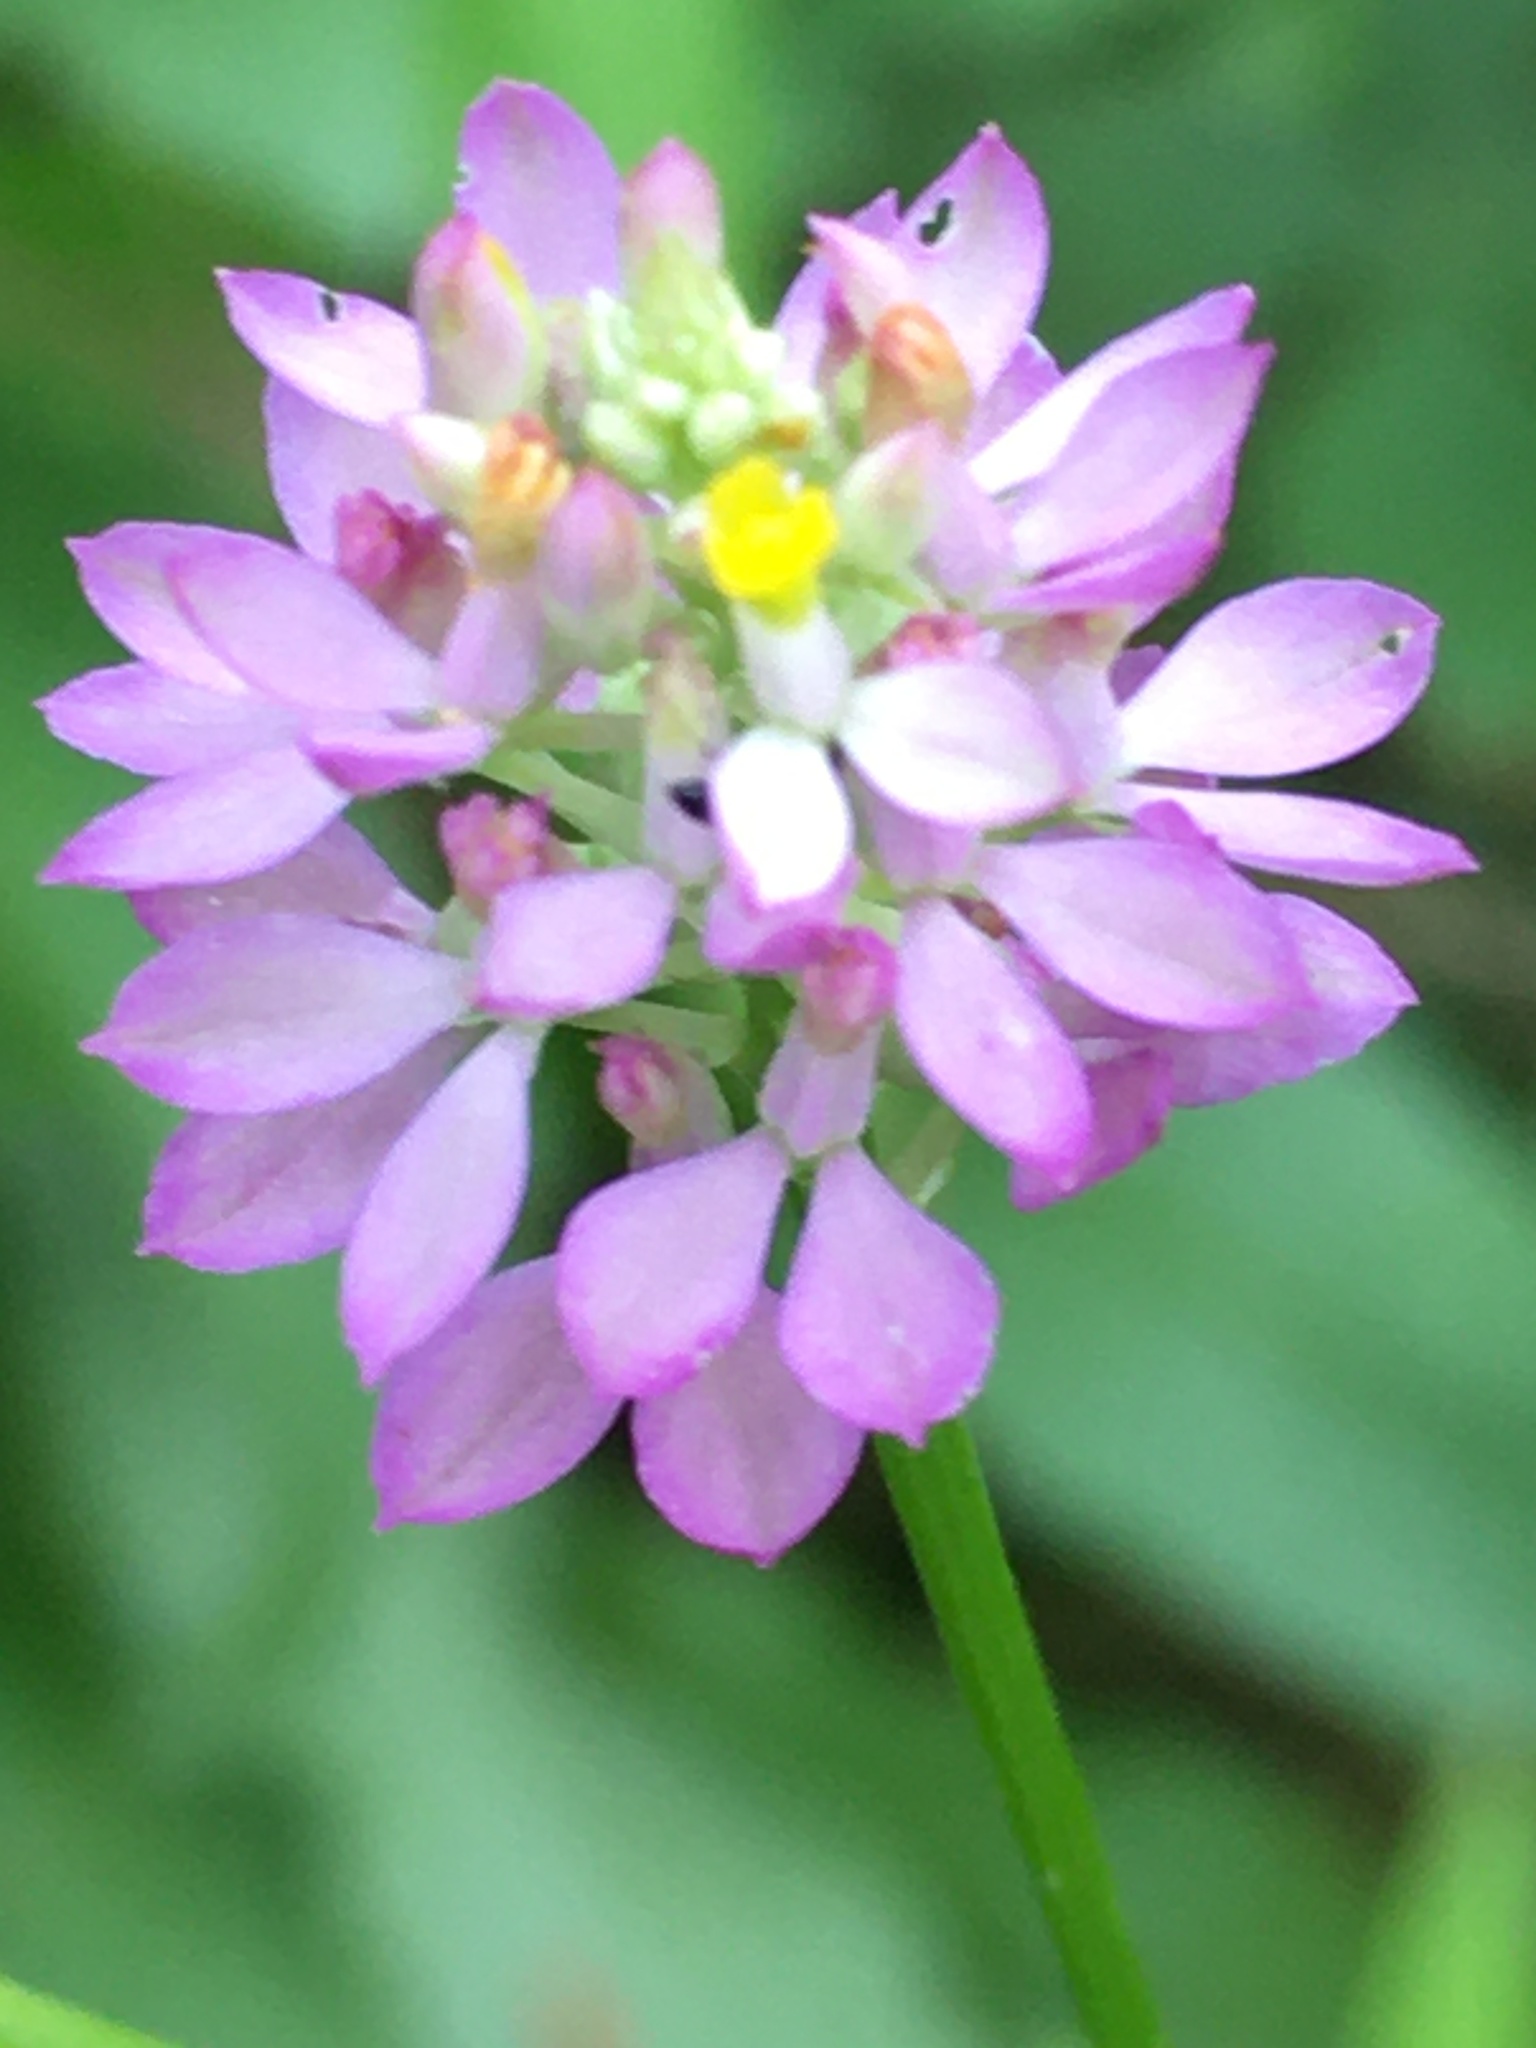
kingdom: Plantae
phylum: Tracheophyta
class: Magnoliopsida
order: Fabales
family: Polygalaceae
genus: Polygala
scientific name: Polygala curtissii
